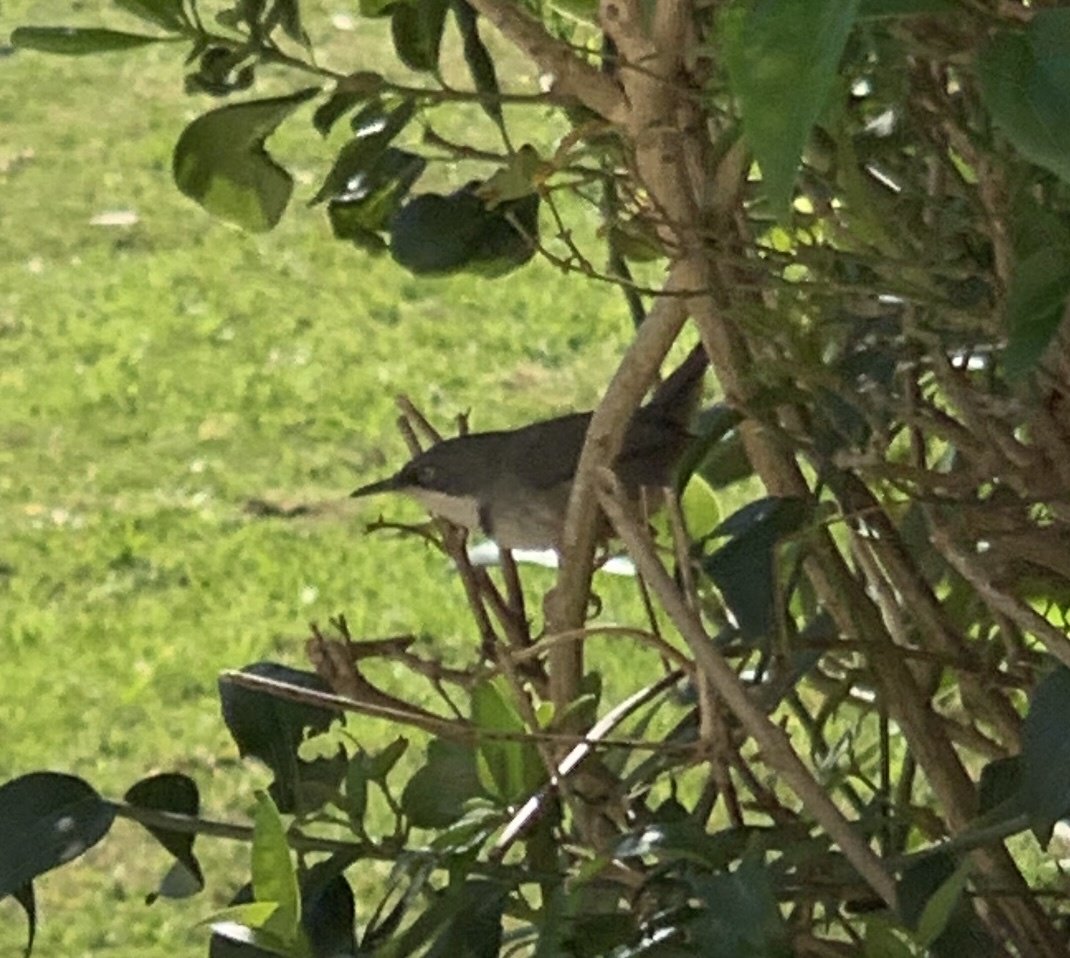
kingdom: Animalia
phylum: Chordata
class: Aves
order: Passeriformes
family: Cisticolidae
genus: Apalis
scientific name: Apalis thoracica
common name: Bar-throated apalis
